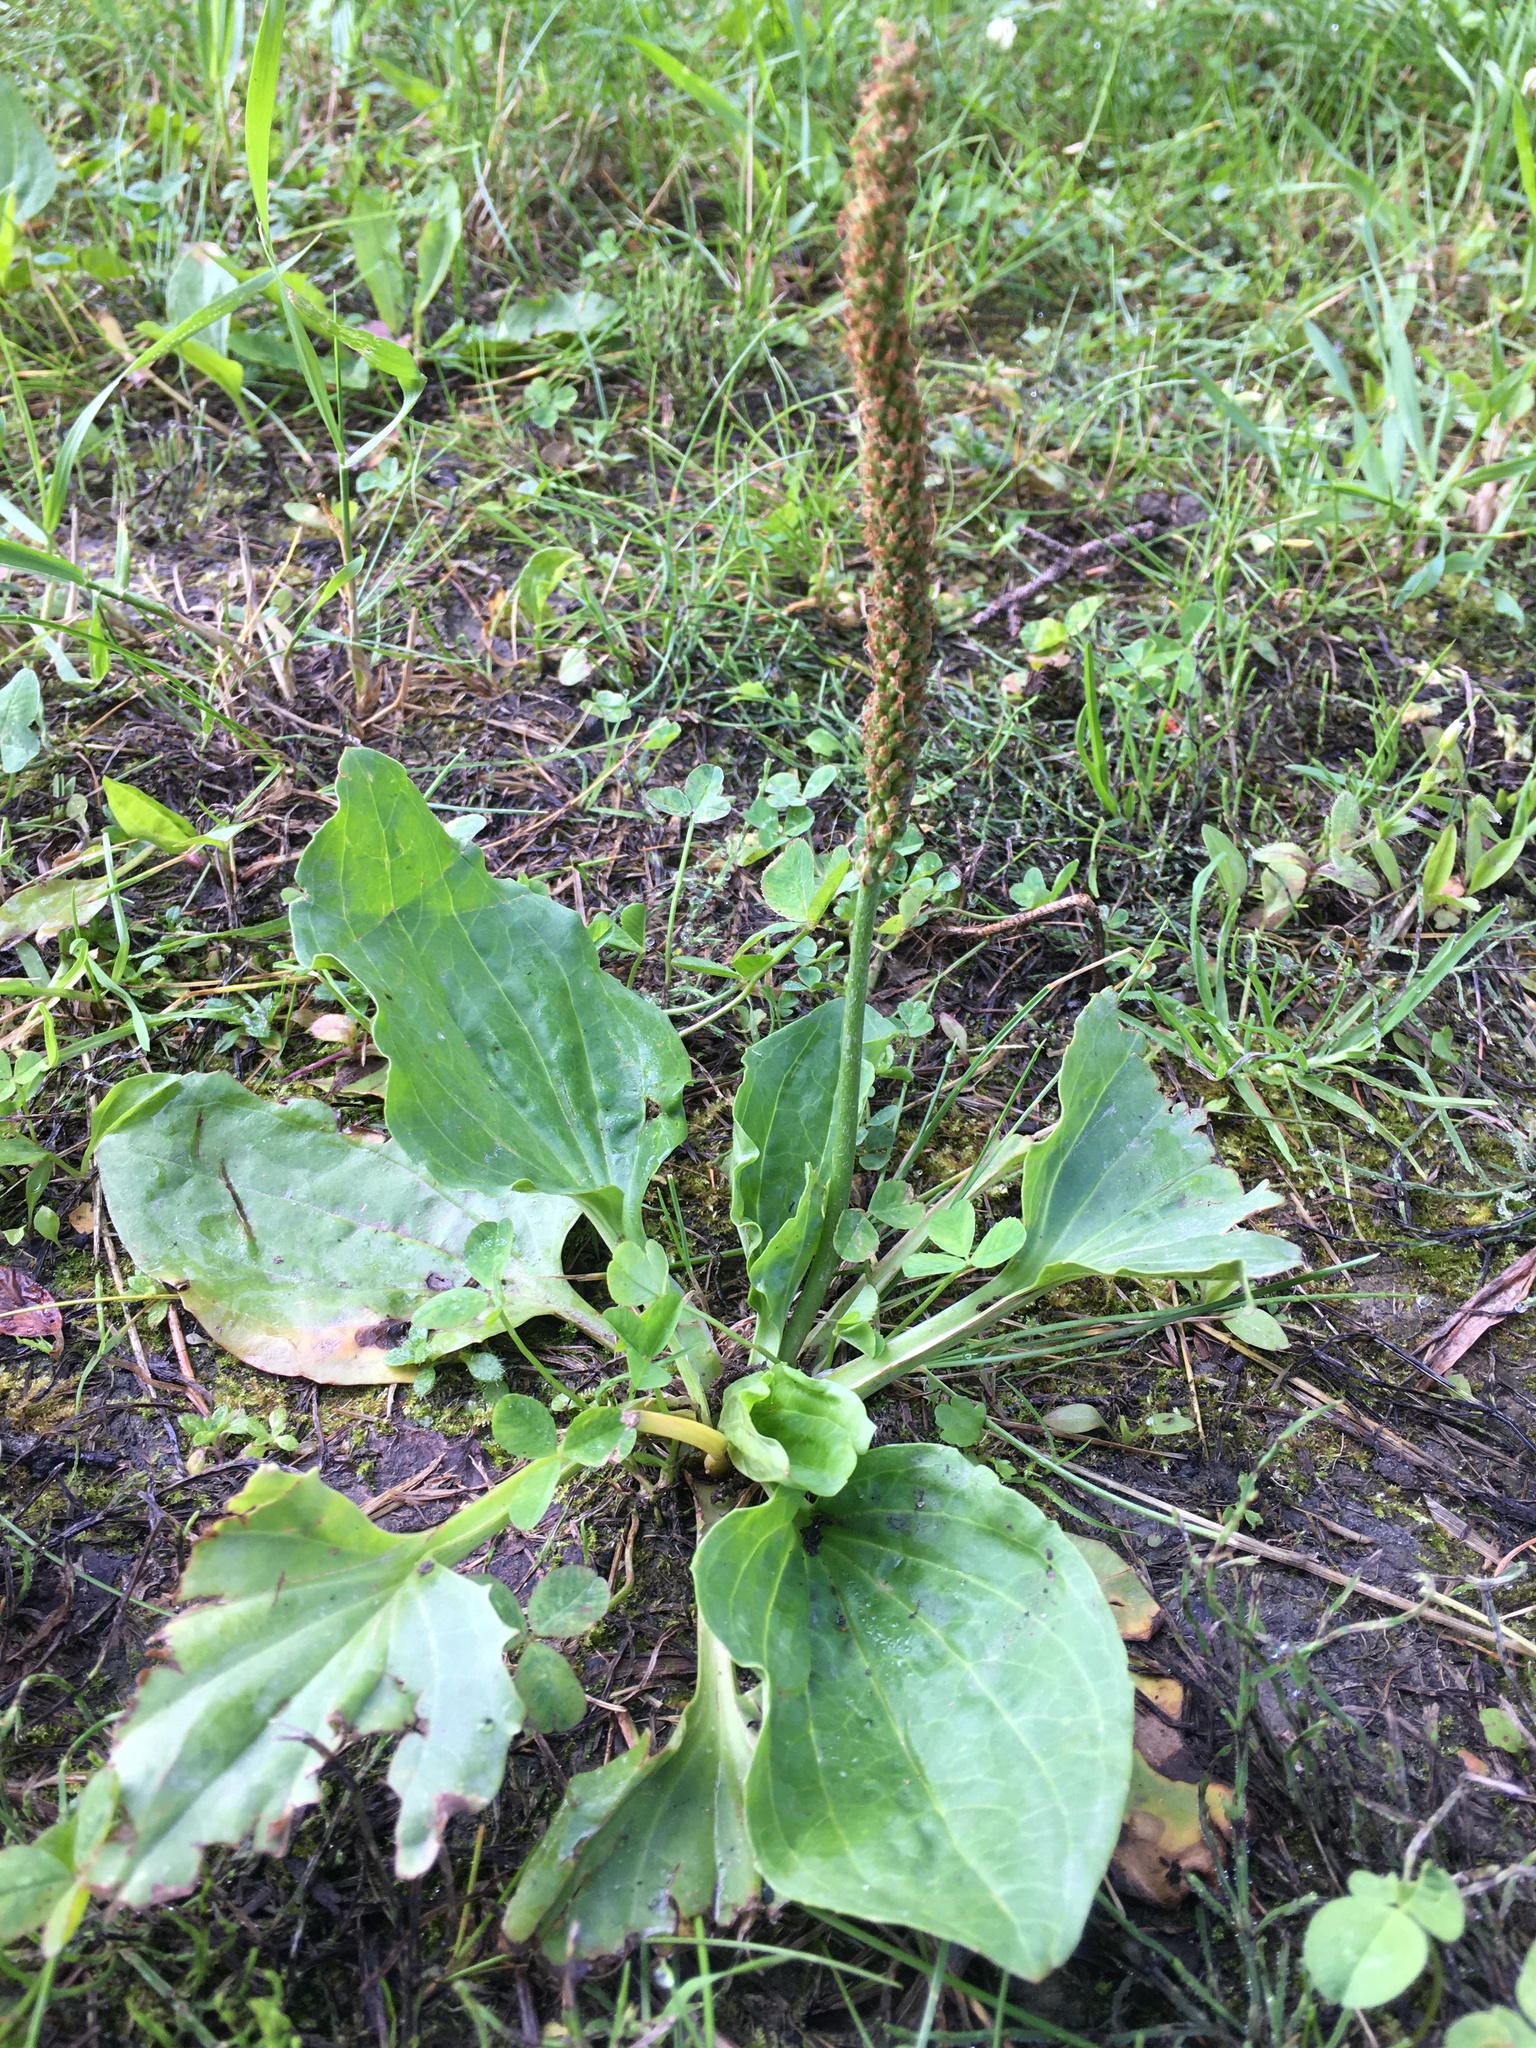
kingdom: Plantae
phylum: Tracheophyta
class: Magnoliopsida
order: Lamiales
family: Plantaginaceae
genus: Plantago
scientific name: Plantago major
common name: Common plantain
